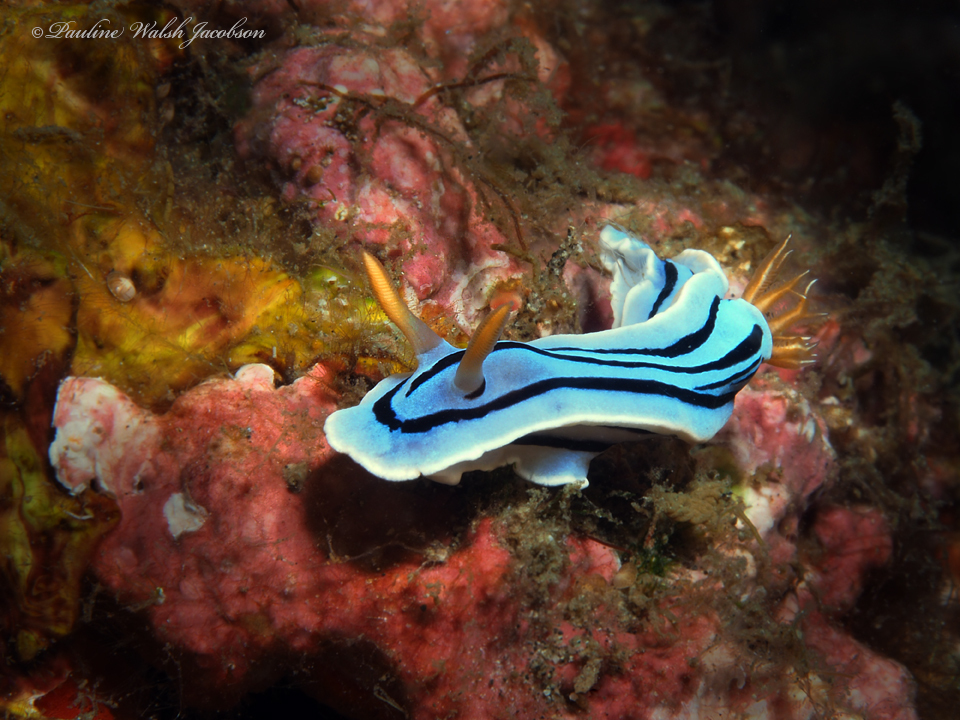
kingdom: Animalia
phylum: Mollusca
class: Gastropoda
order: Nudibranchia
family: Chromodorididae
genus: Chromodoris
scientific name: Chromodoris lochi
